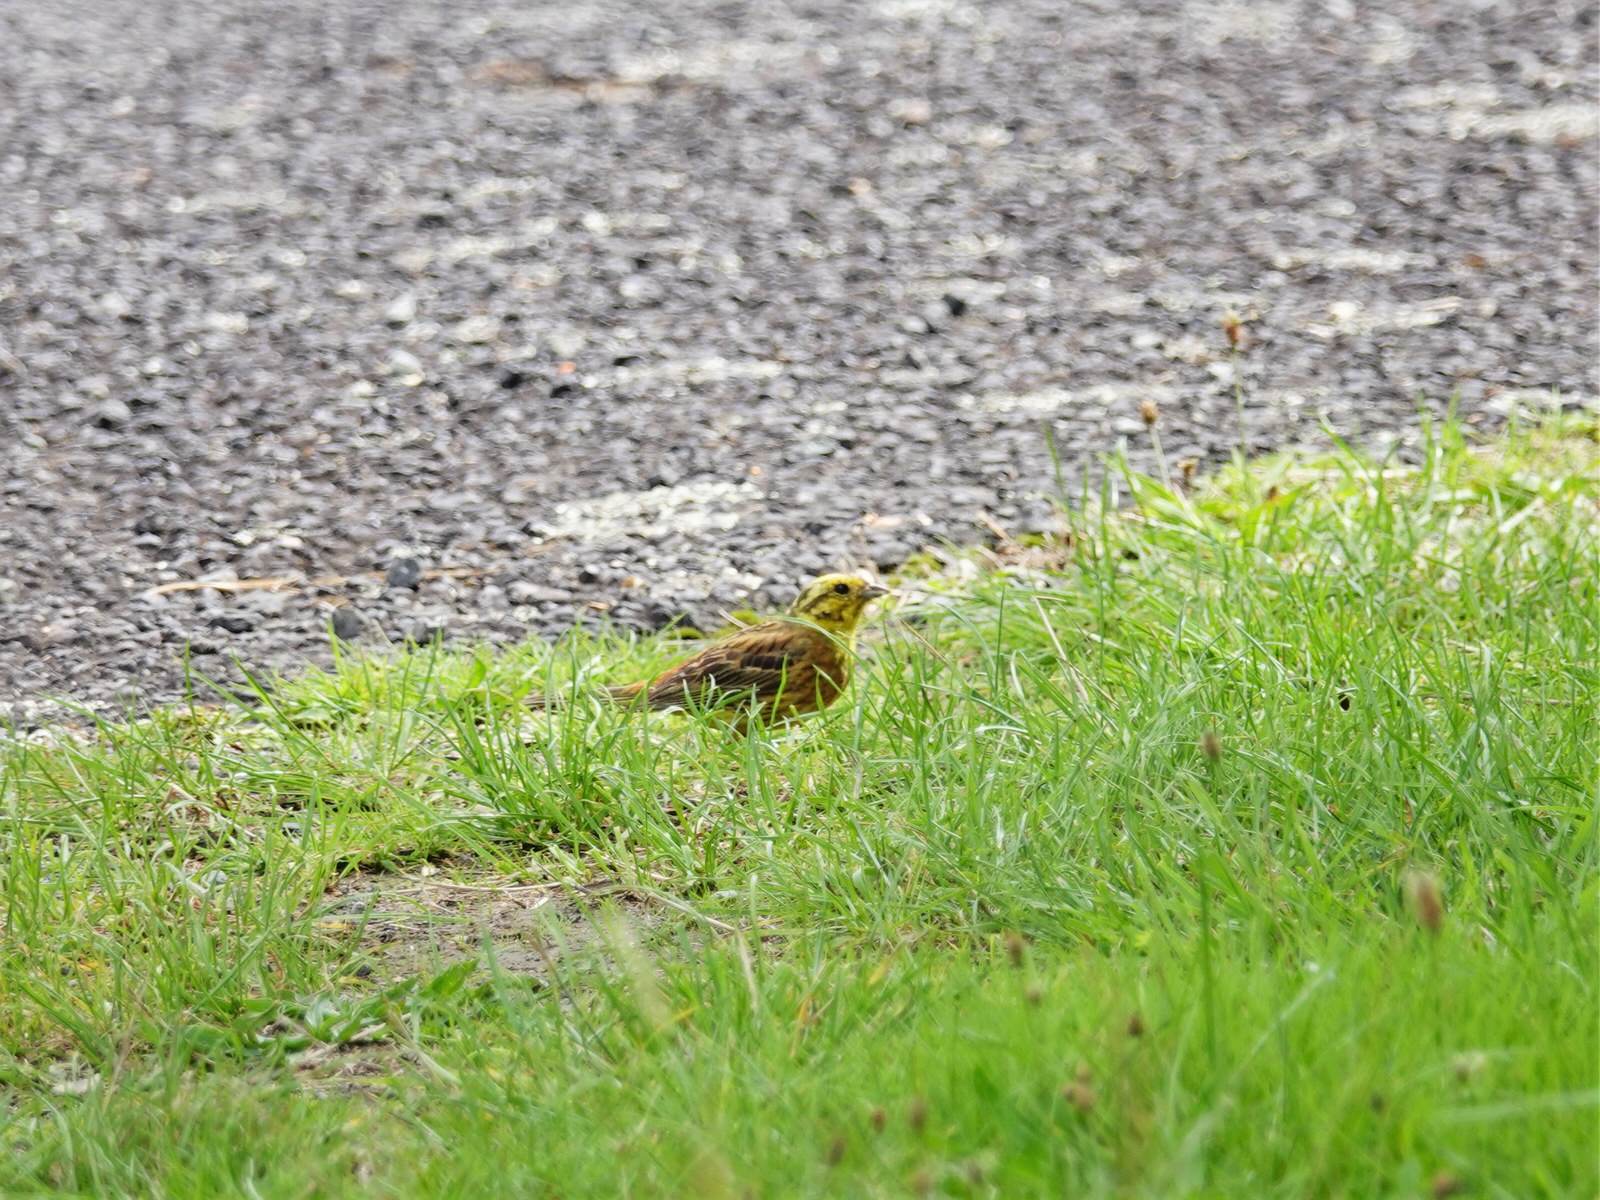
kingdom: Animalia
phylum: Chordata
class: Aves
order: Passeriformes
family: Emberizidae
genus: Emberiza
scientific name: Emberiza citrinella
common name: Yellowhammer
